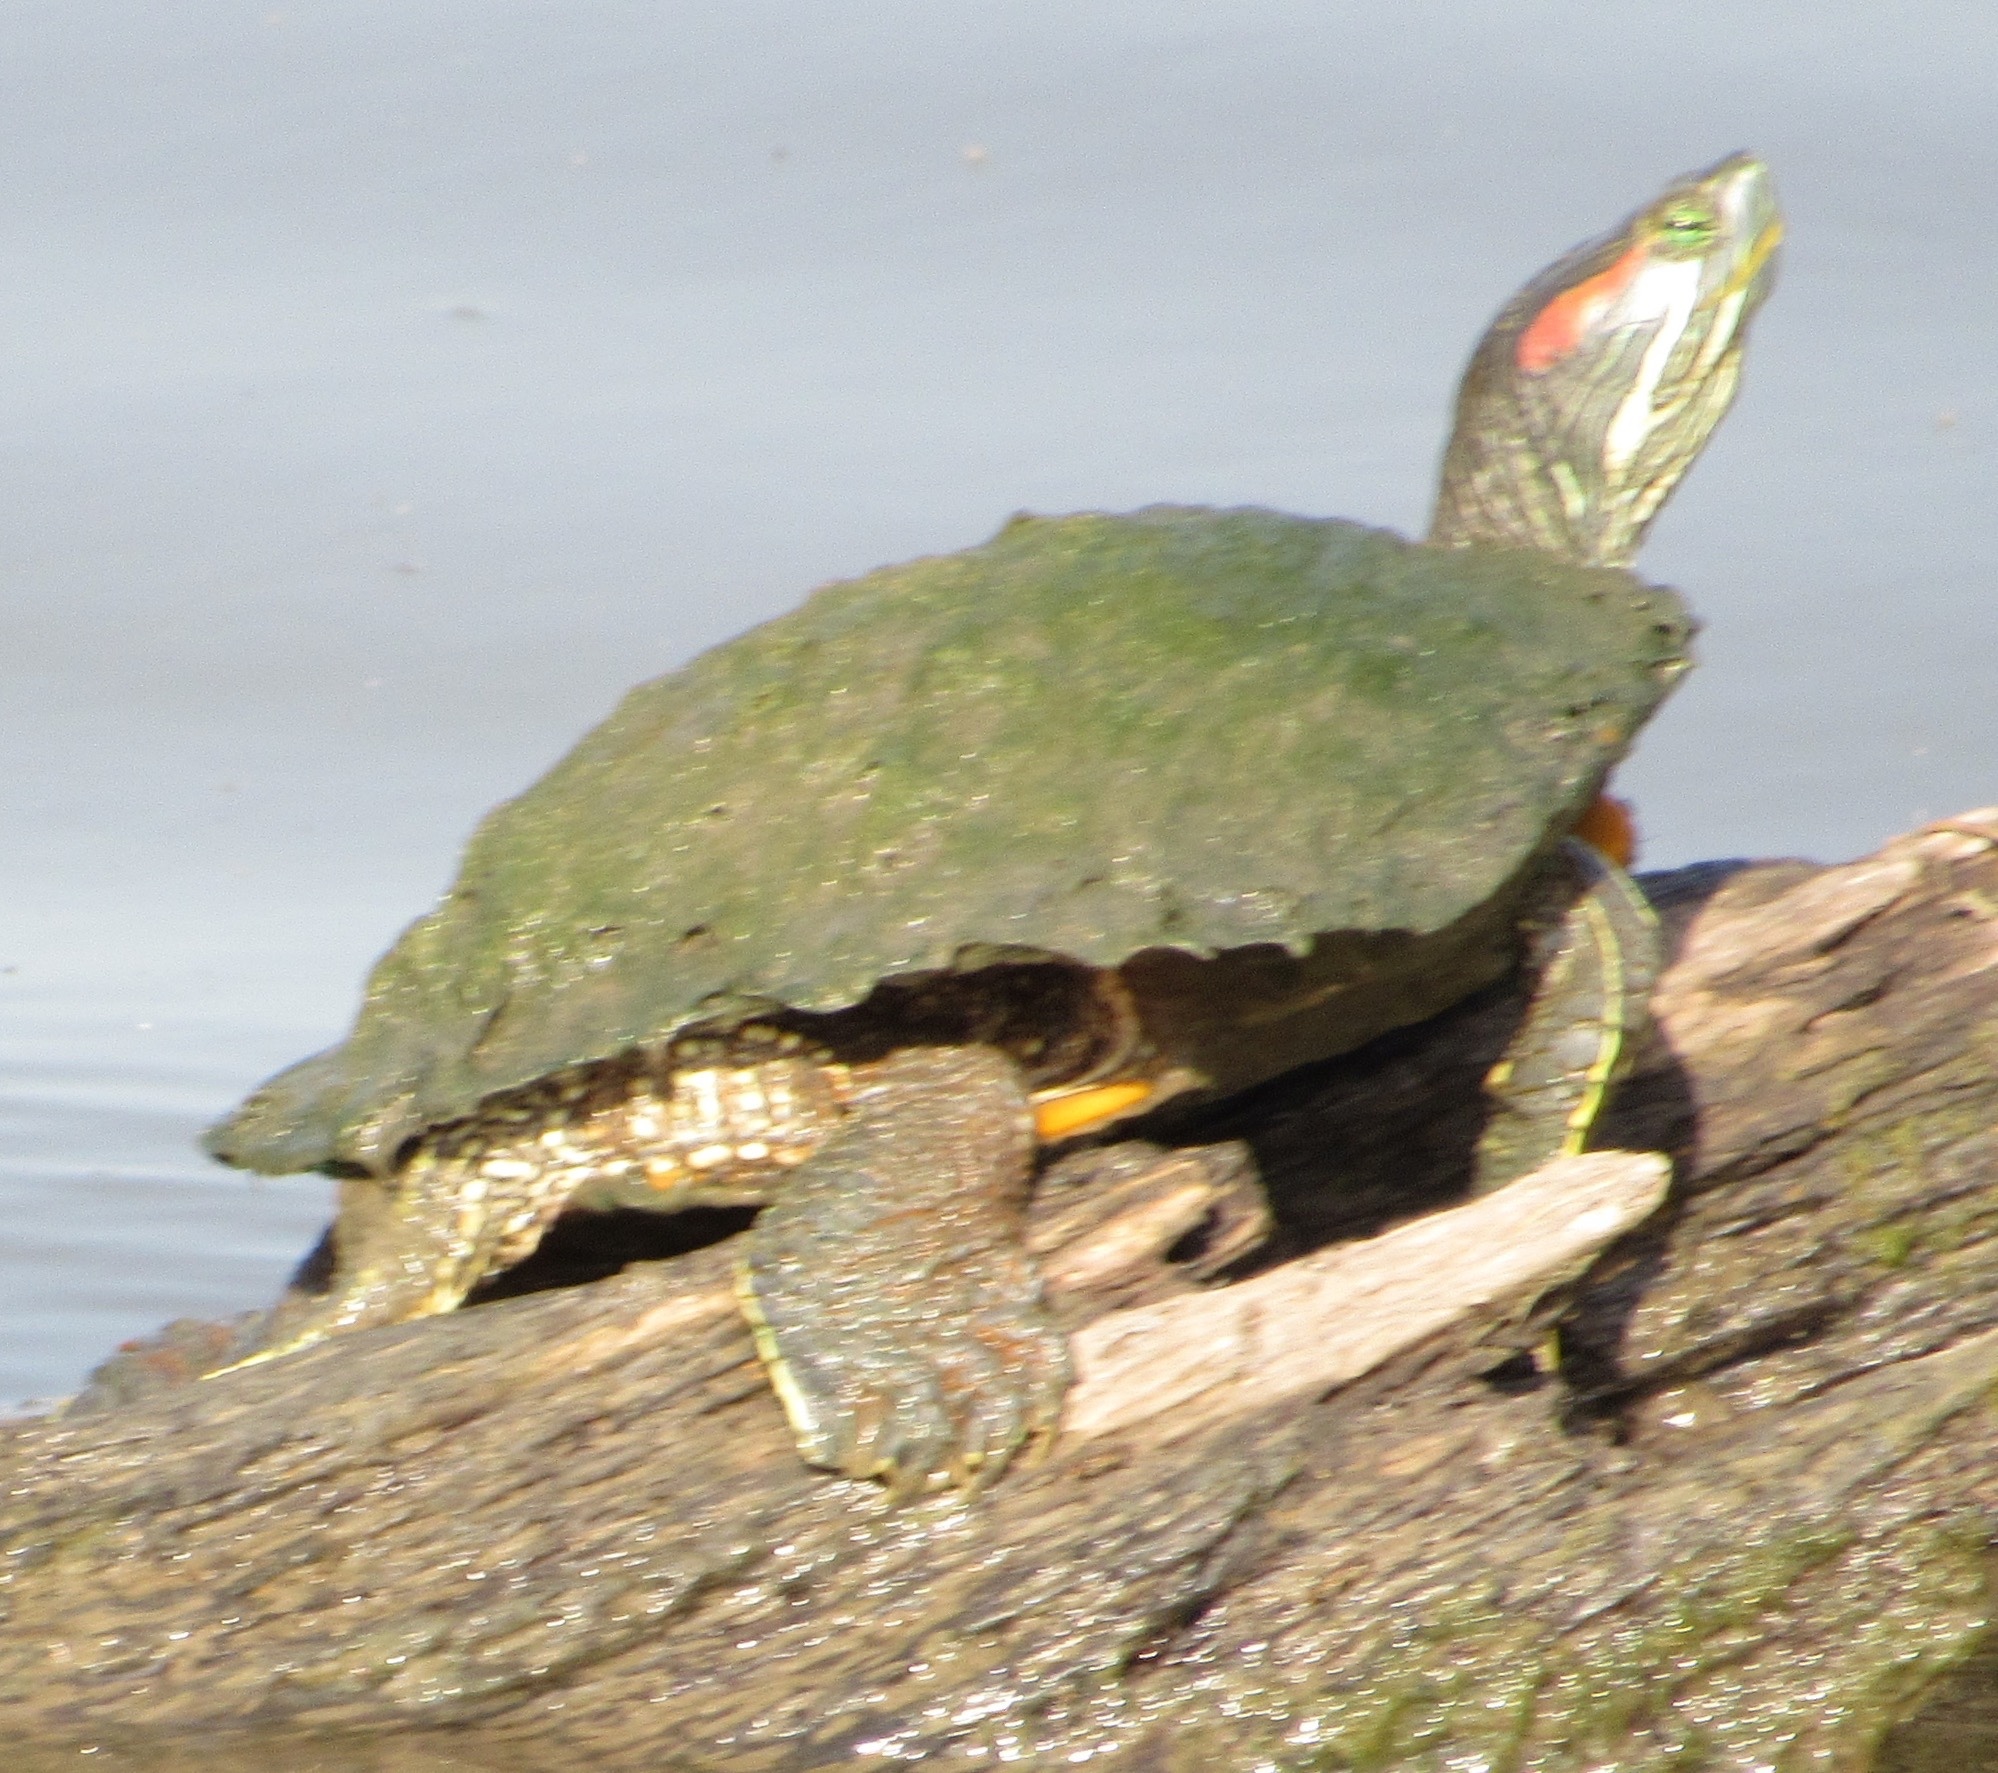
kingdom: Animalia
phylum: Chordata
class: Testudines
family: Emydidae
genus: Trachemys
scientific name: Trachemys scripta
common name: Slider
